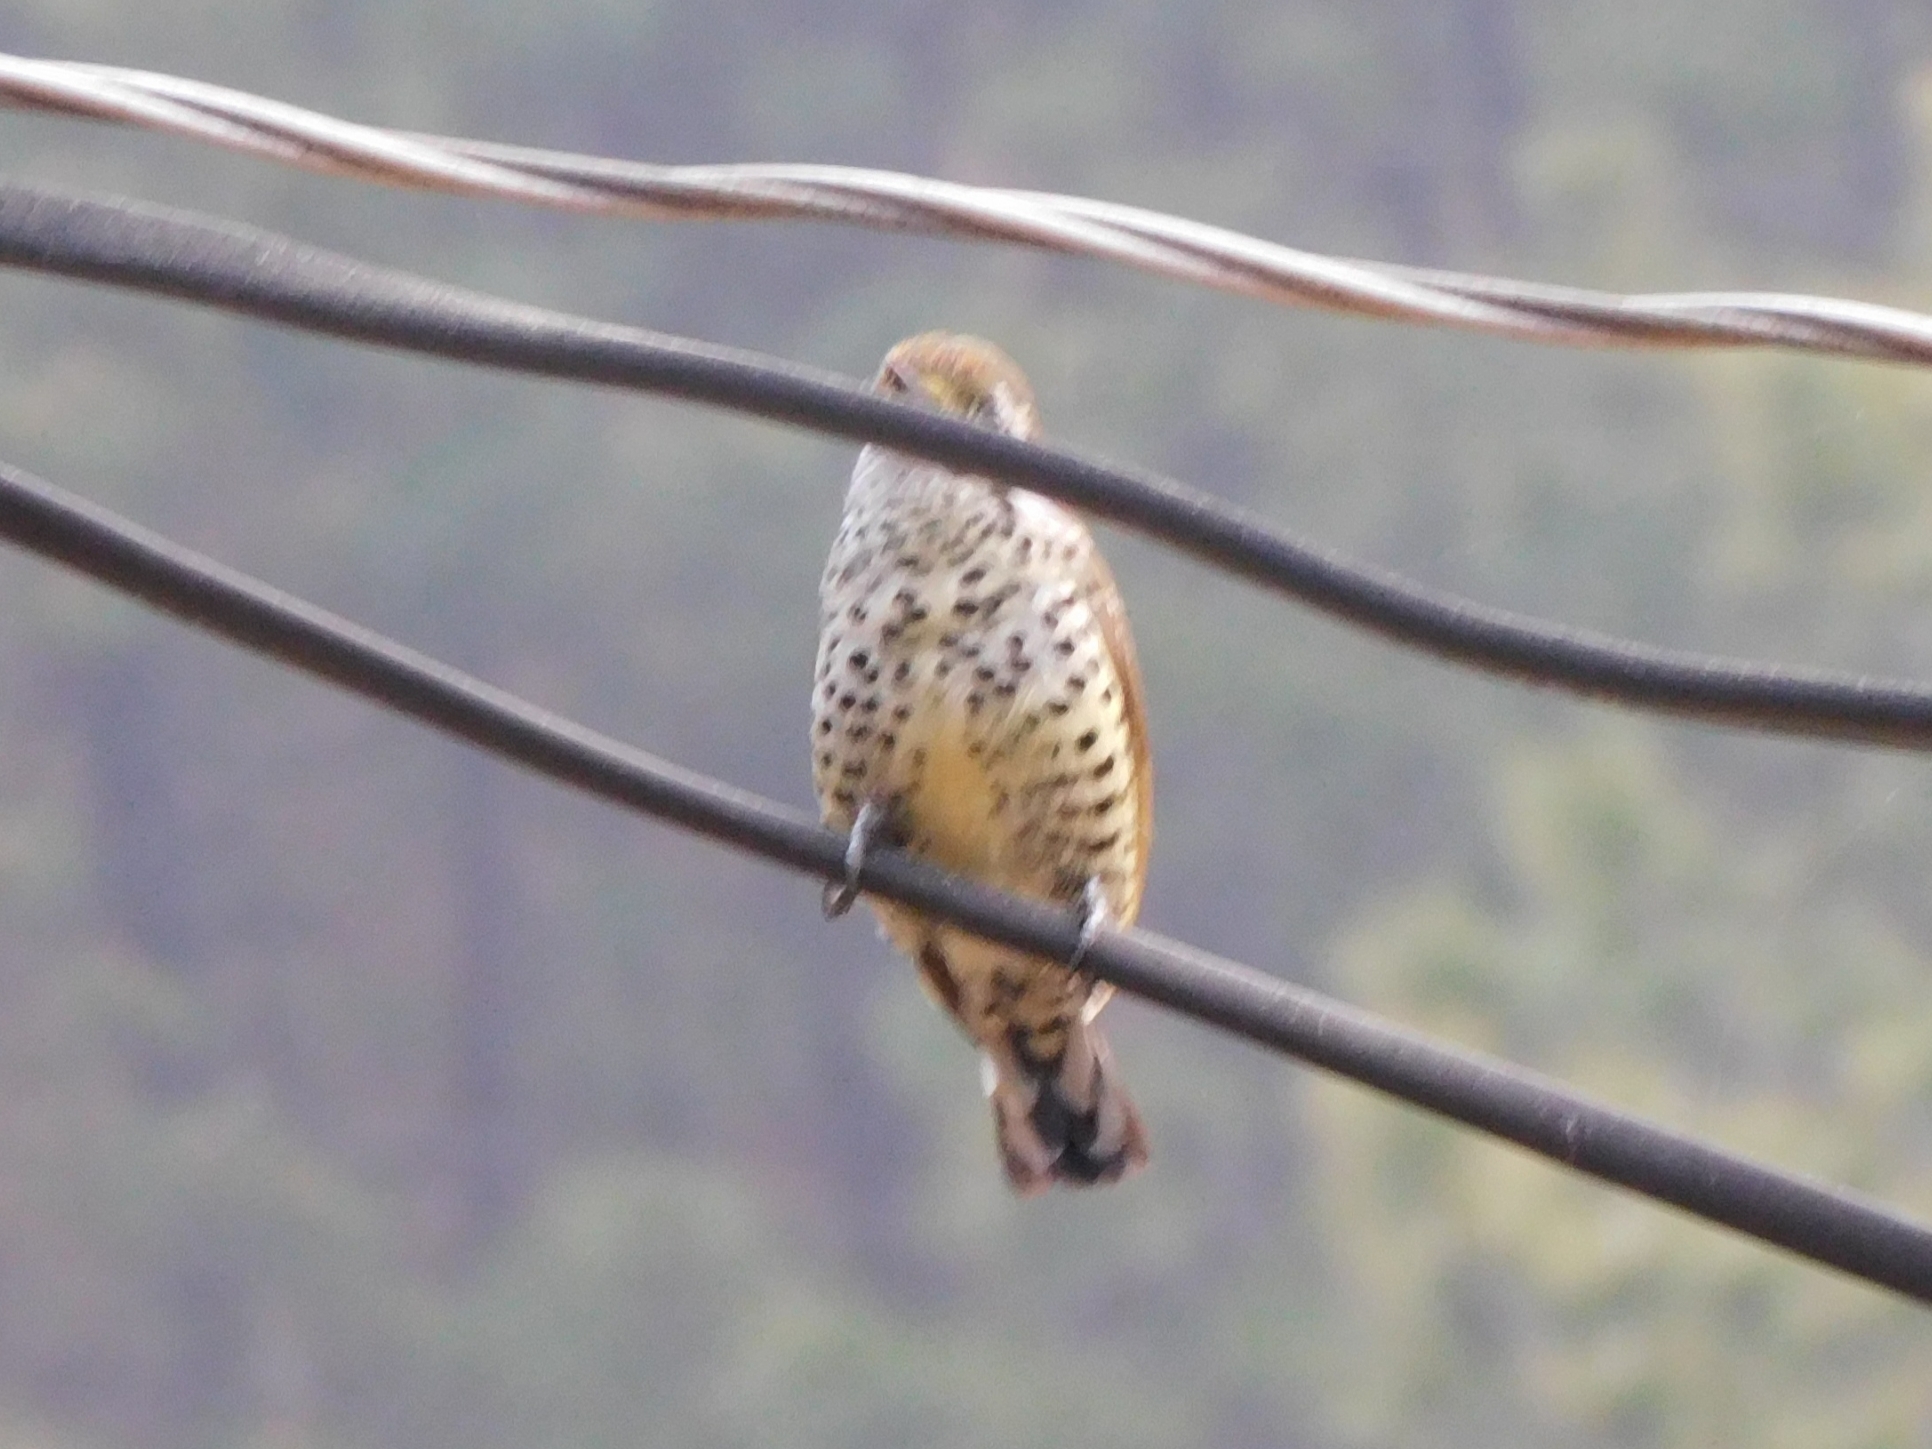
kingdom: Animalia
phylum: Chordata
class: Aves
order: Piciformes
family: Picidae
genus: Picumnus
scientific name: Picumnus innominatus
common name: Speckled piculet
